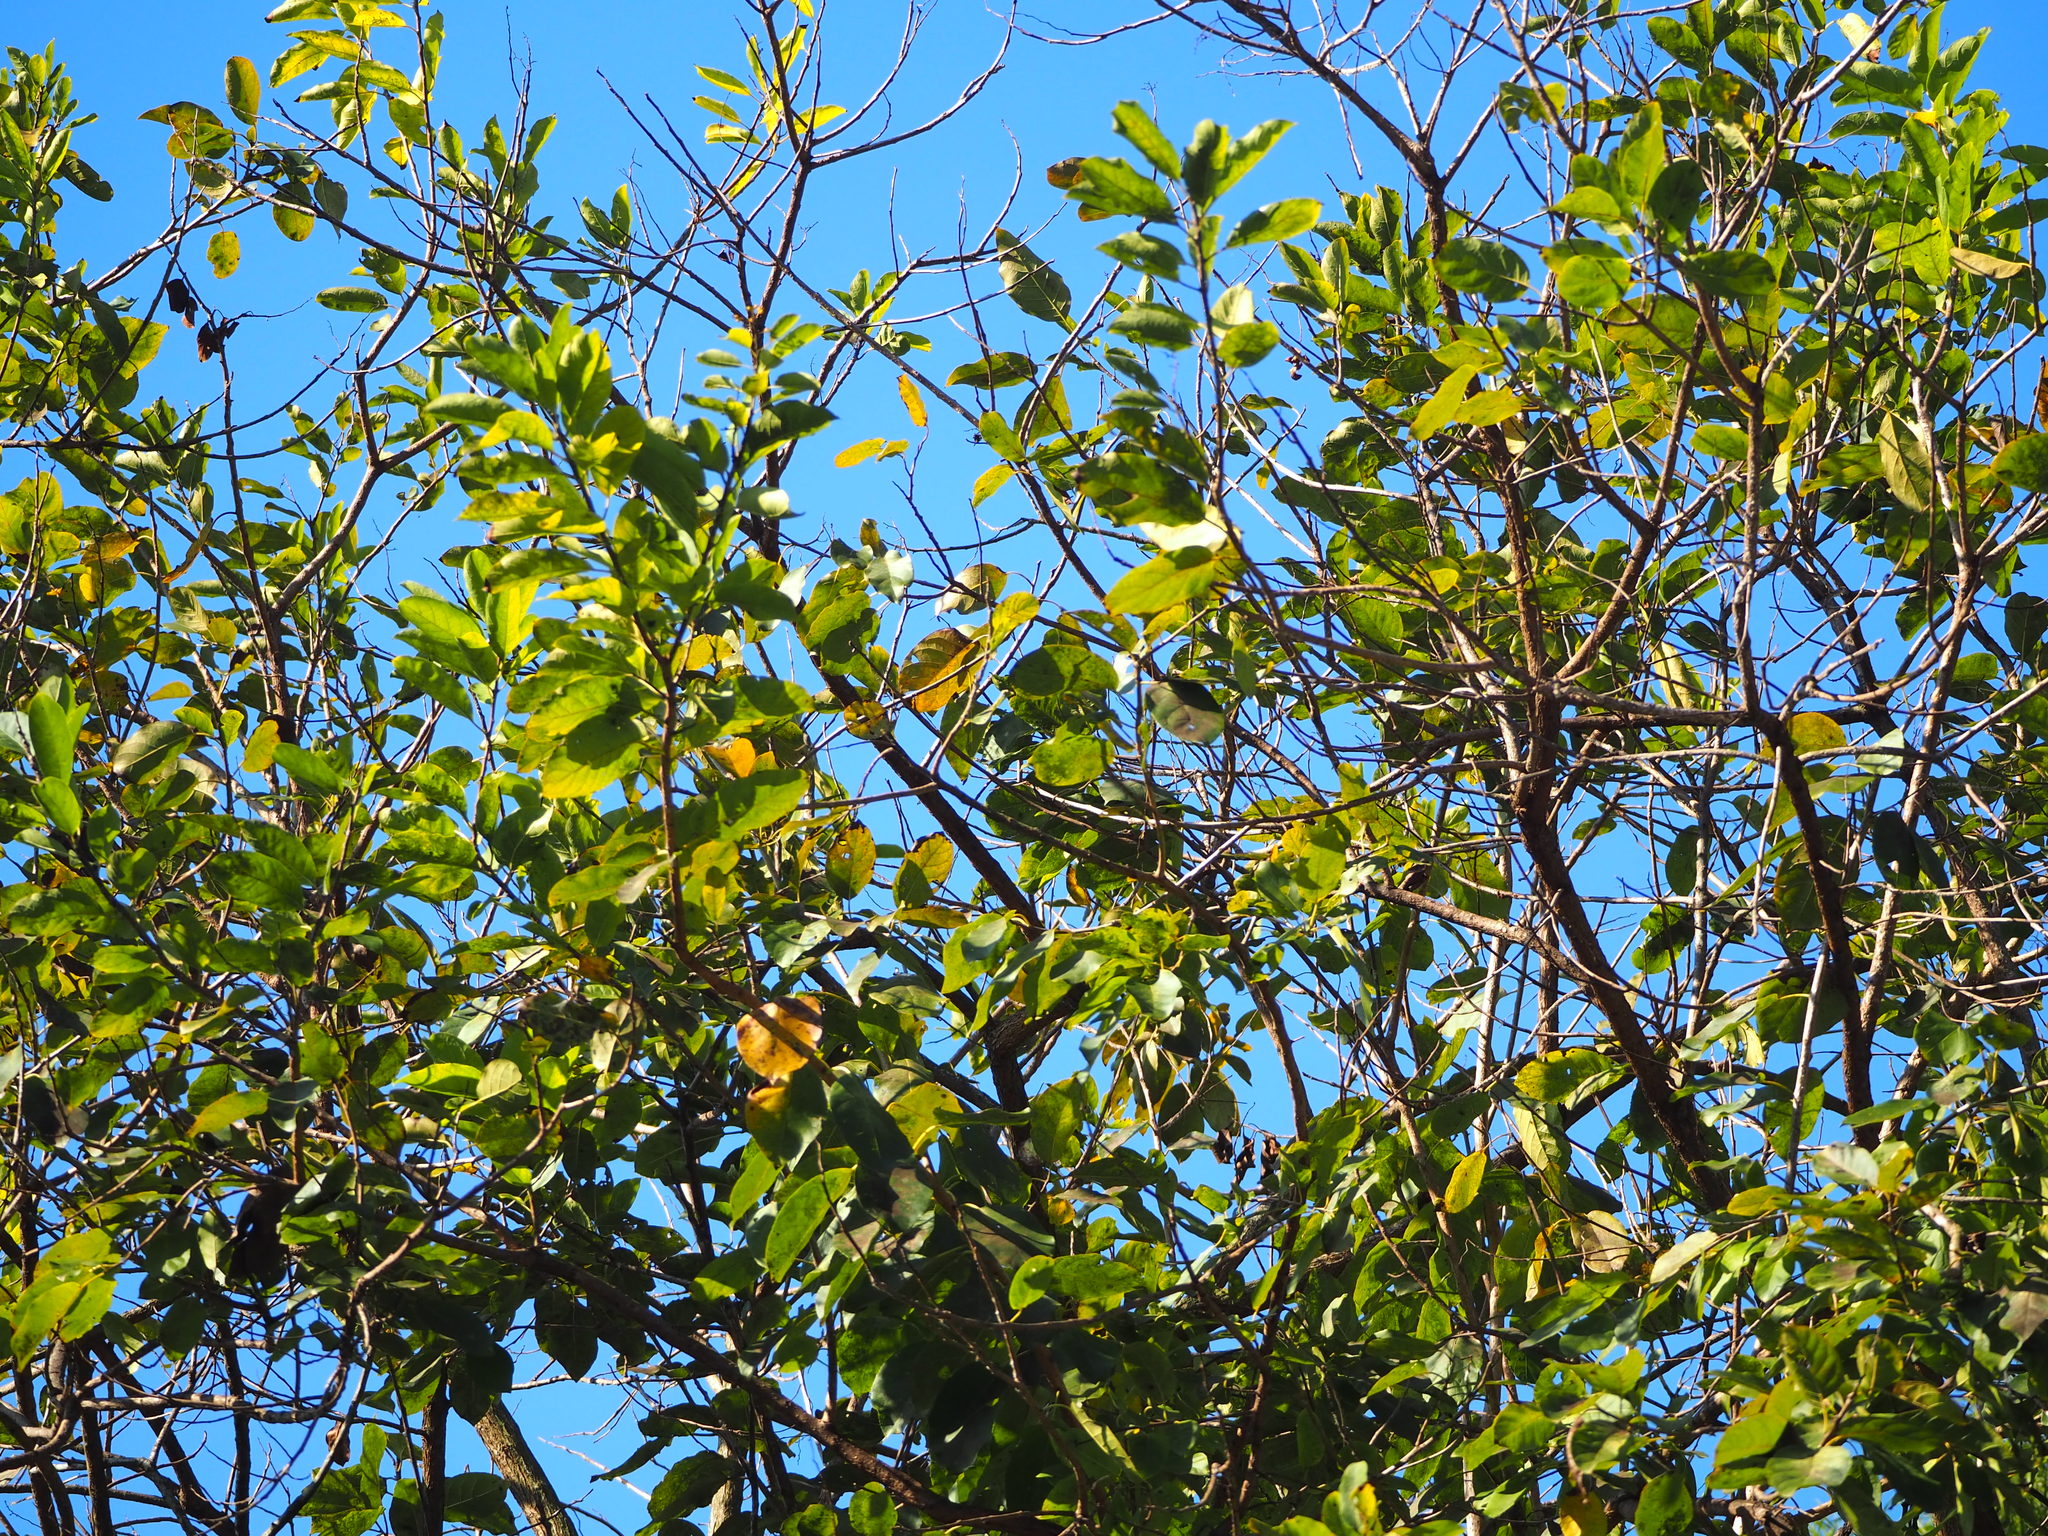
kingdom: Plantae
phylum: Tracheophyta
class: Magnoliopsida
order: Boraginales
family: Cordiaceae
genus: Cordia
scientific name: Cordia dichotoma
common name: Fragrant manjack
